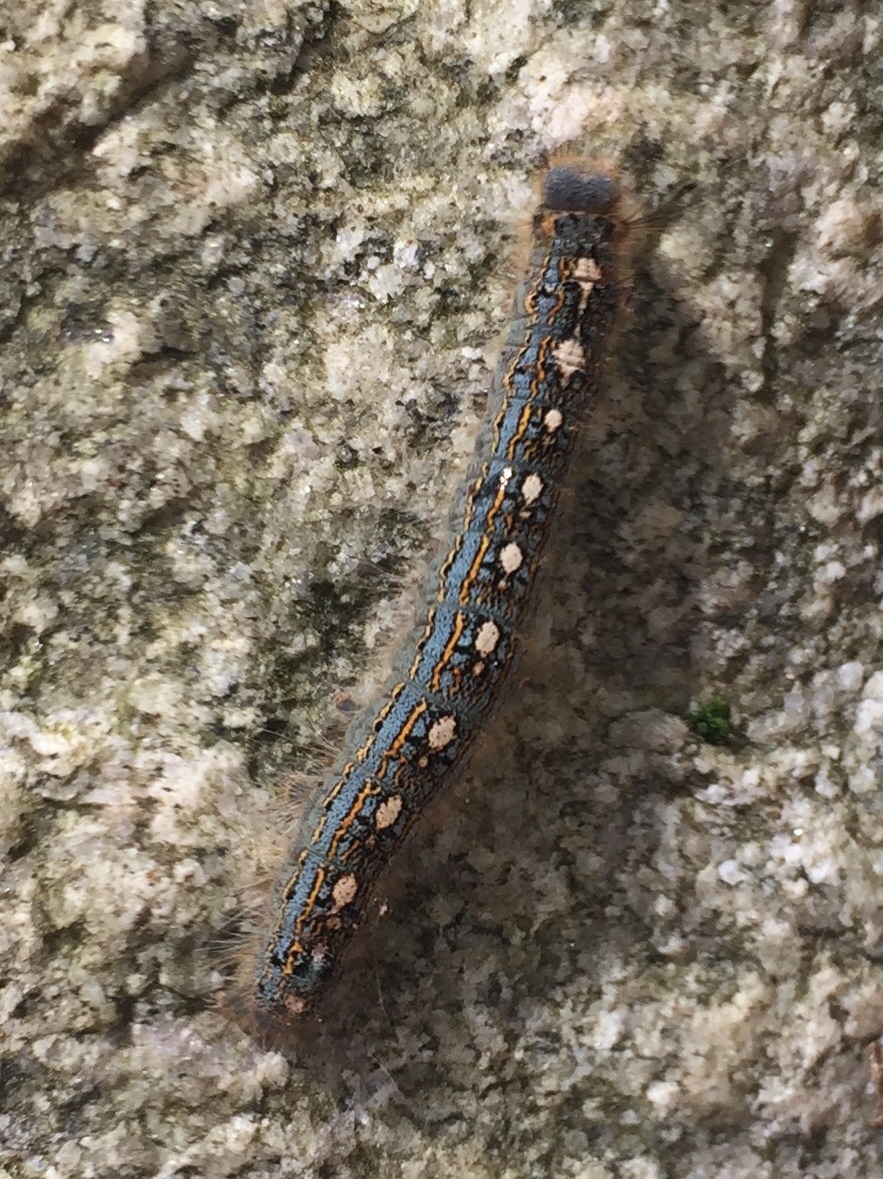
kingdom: Animalia
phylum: Arthropoda
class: Insecta
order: Lepidoptera
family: Lasiocampidae
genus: Malacosoma
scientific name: Malacosoma disstria
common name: Forest tent caterpillar
